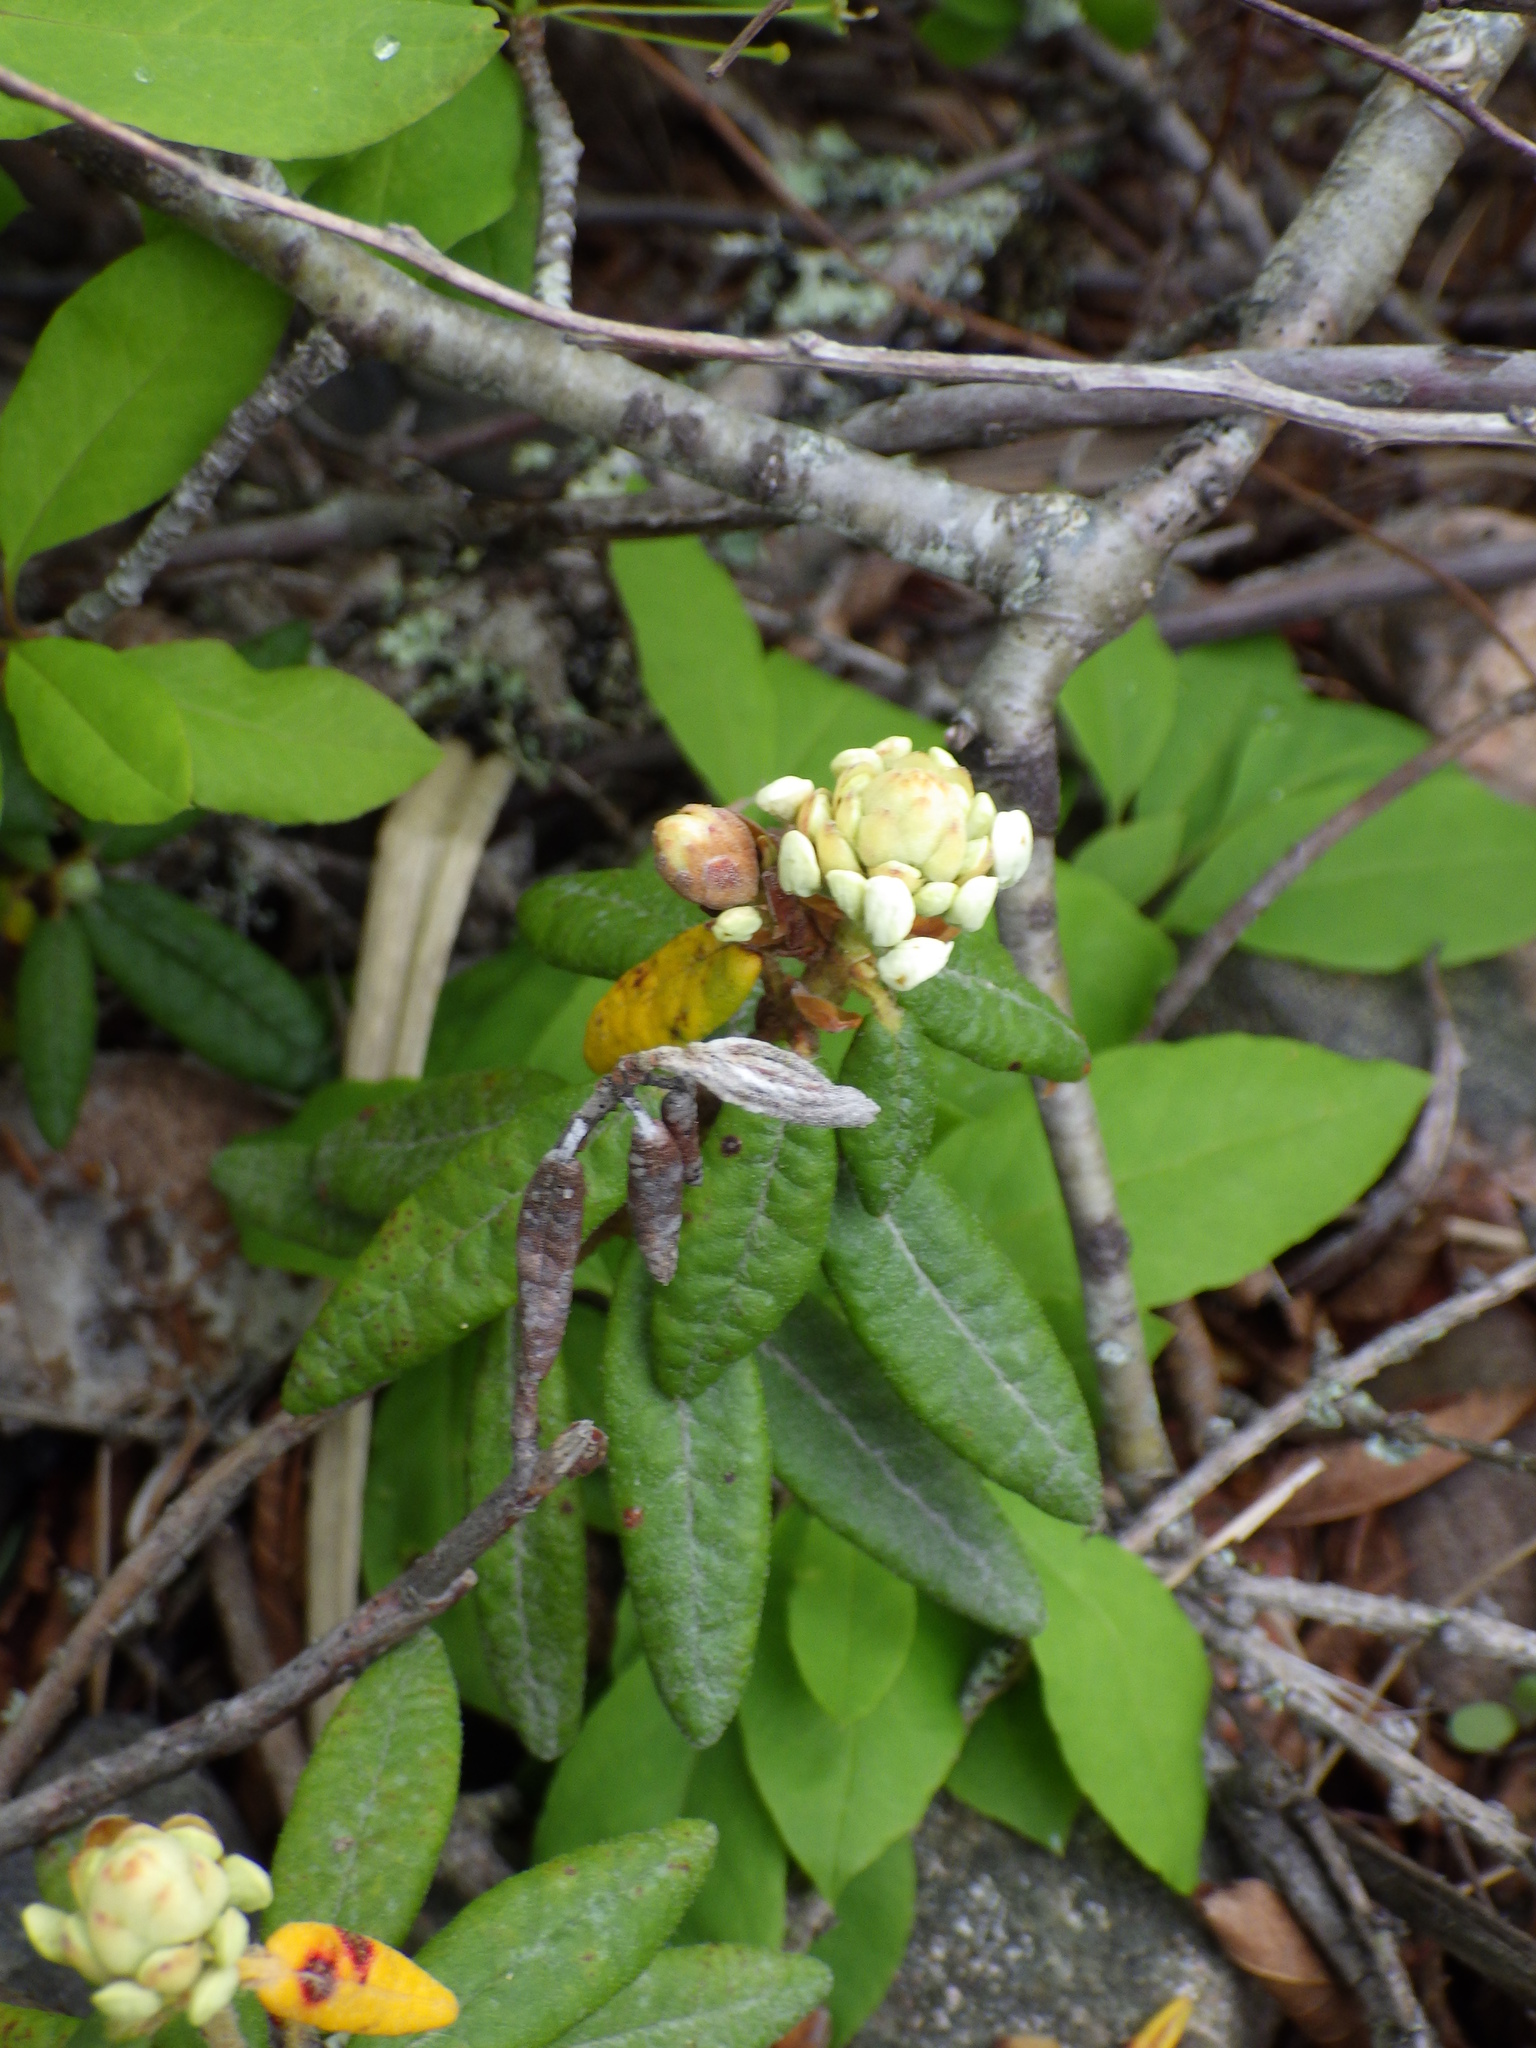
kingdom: Plantae
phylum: Tracheophyta
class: Magnoliopsida
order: Ericales
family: Ericaceae
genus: Rhododendron
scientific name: Rhododendron groenlandicum
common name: Bog labrador tea
